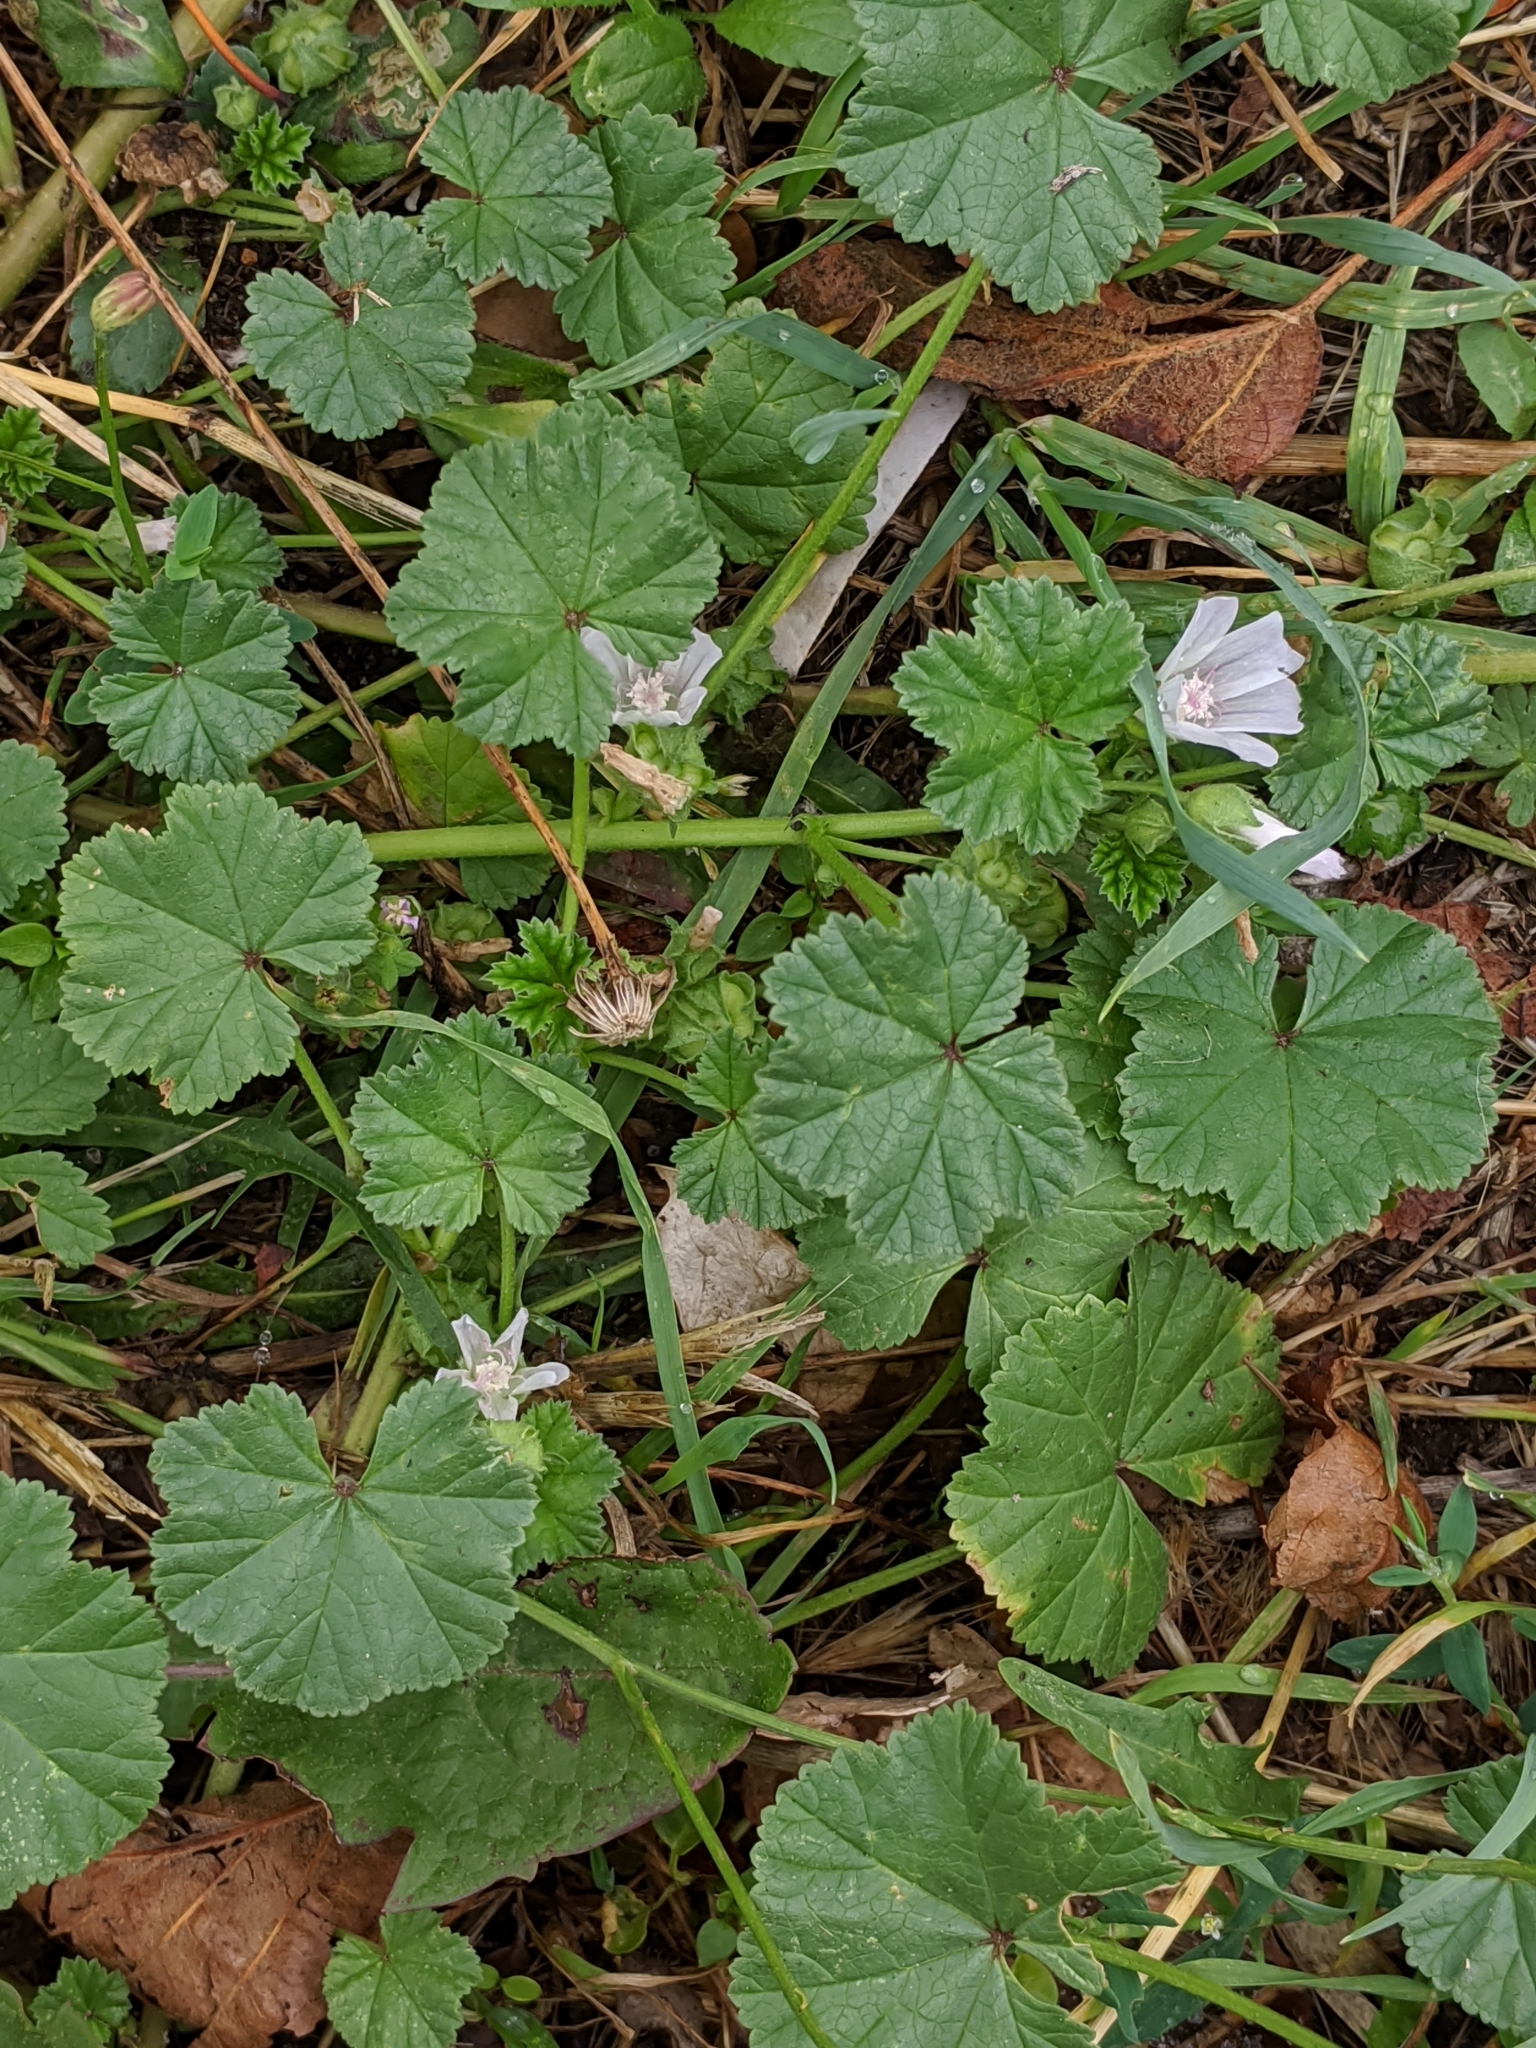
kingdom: Plantae
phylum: Tracheophyta
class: Magnoliopsida
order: Malvales
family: Malvaceae
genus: Malva
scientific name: Malva neglecta
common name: Common mallow
